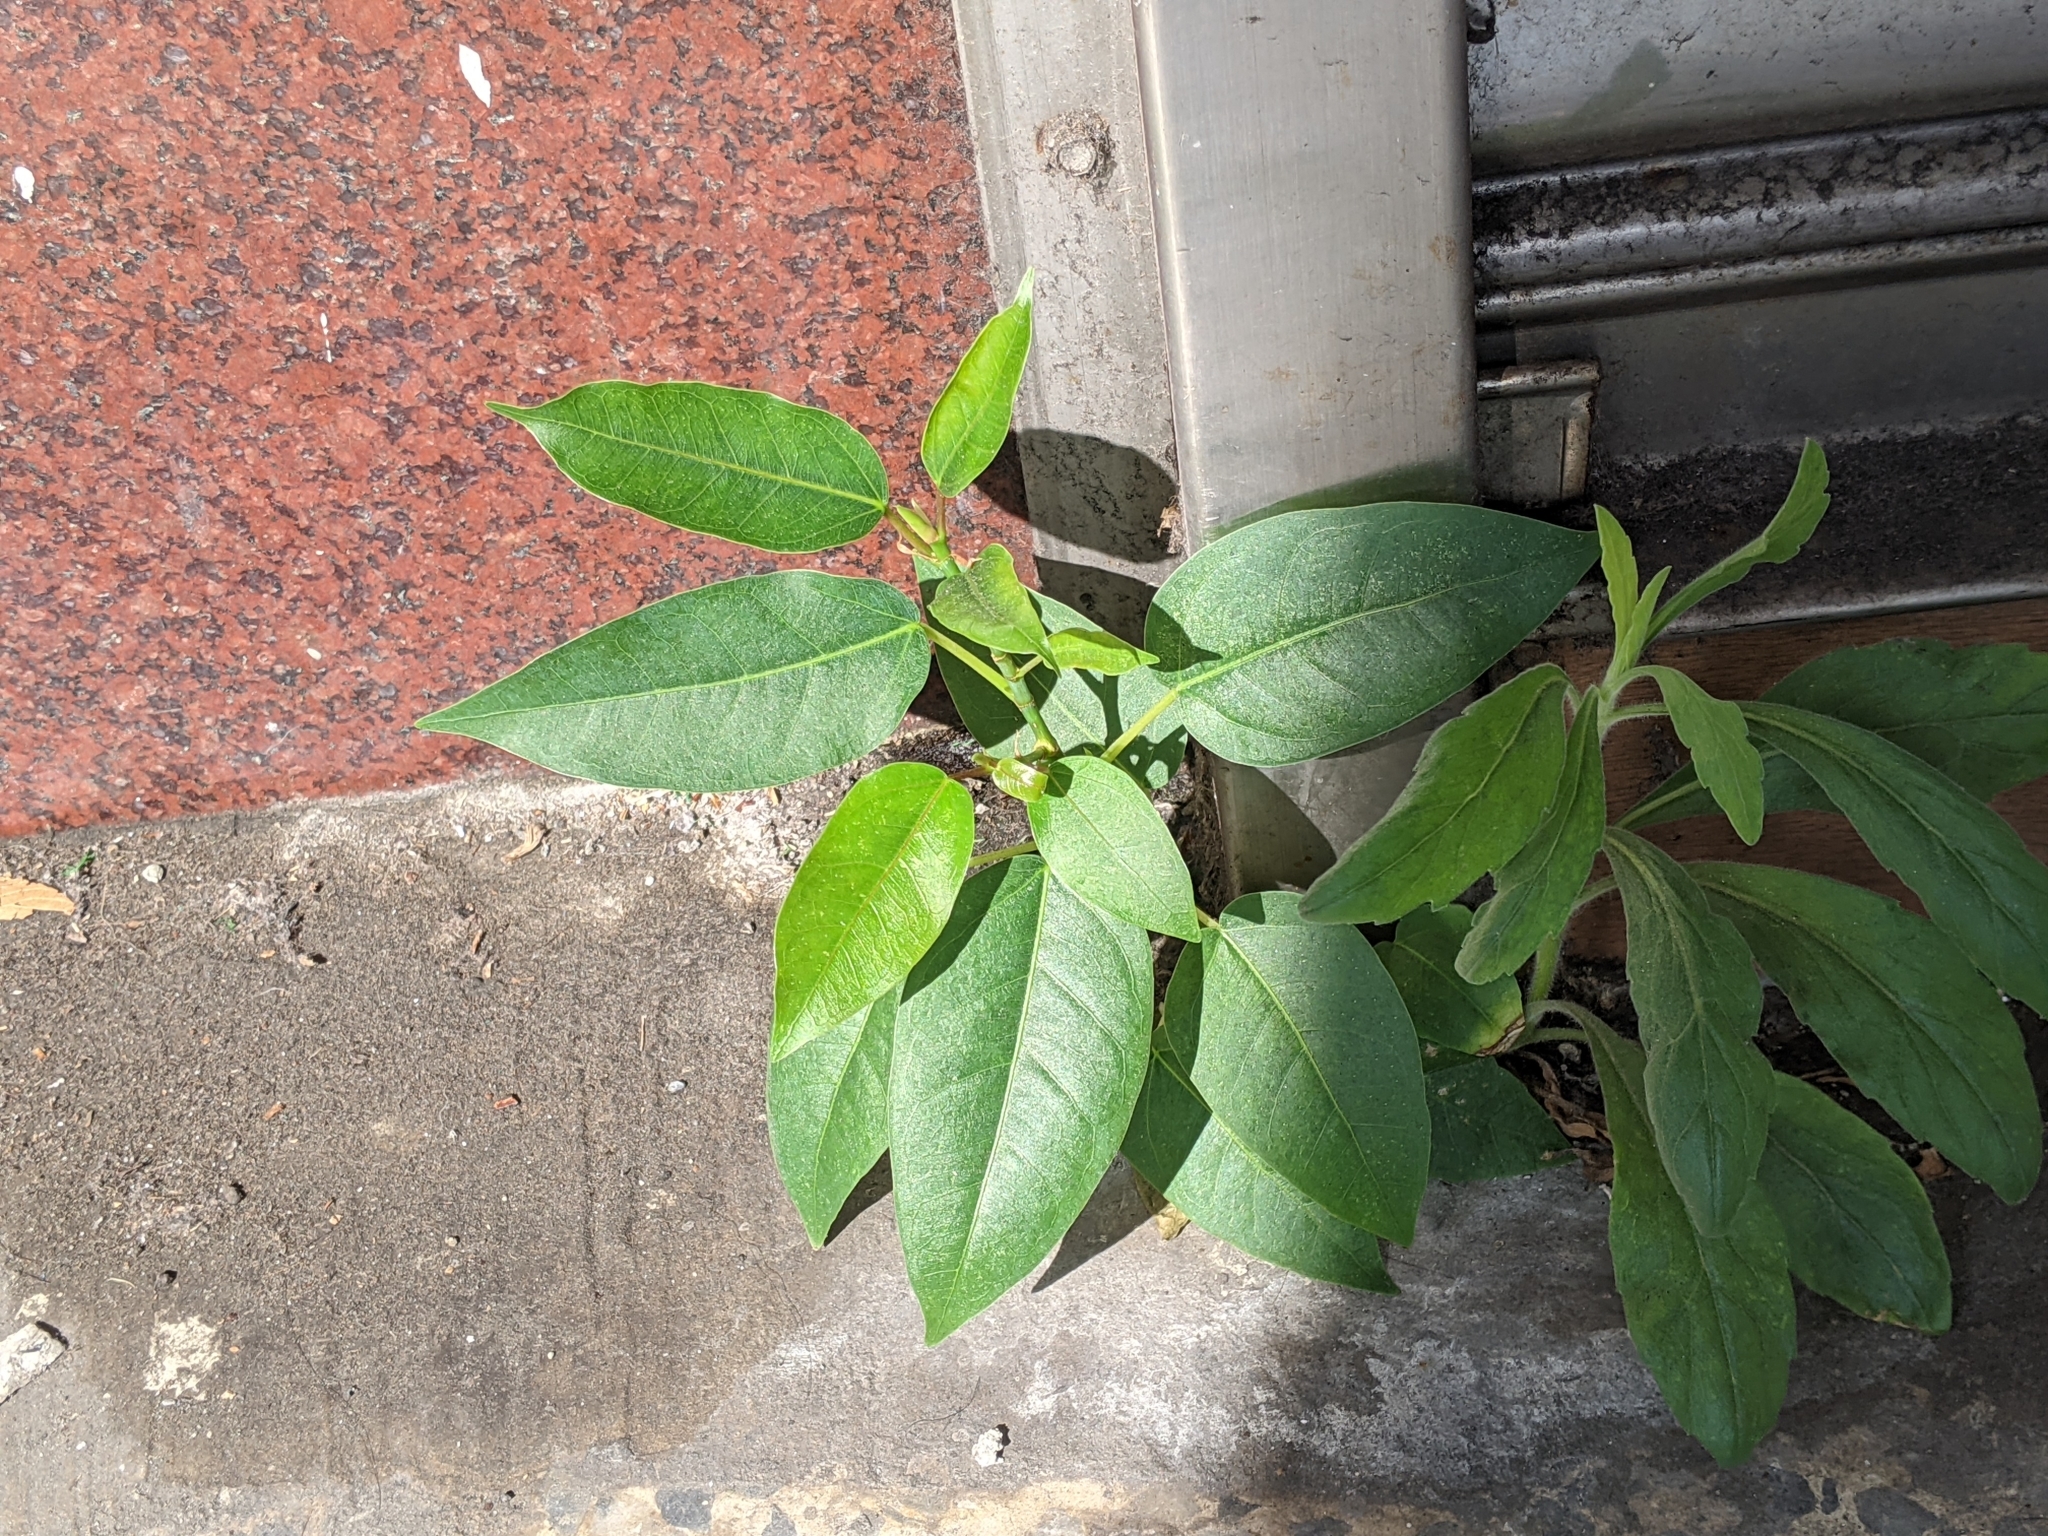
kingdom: Plantae
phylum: Tracheophyta
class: Magnoliopsida
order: Rosales
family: Moraceae
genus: Ficus
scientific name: Ficus virgata
